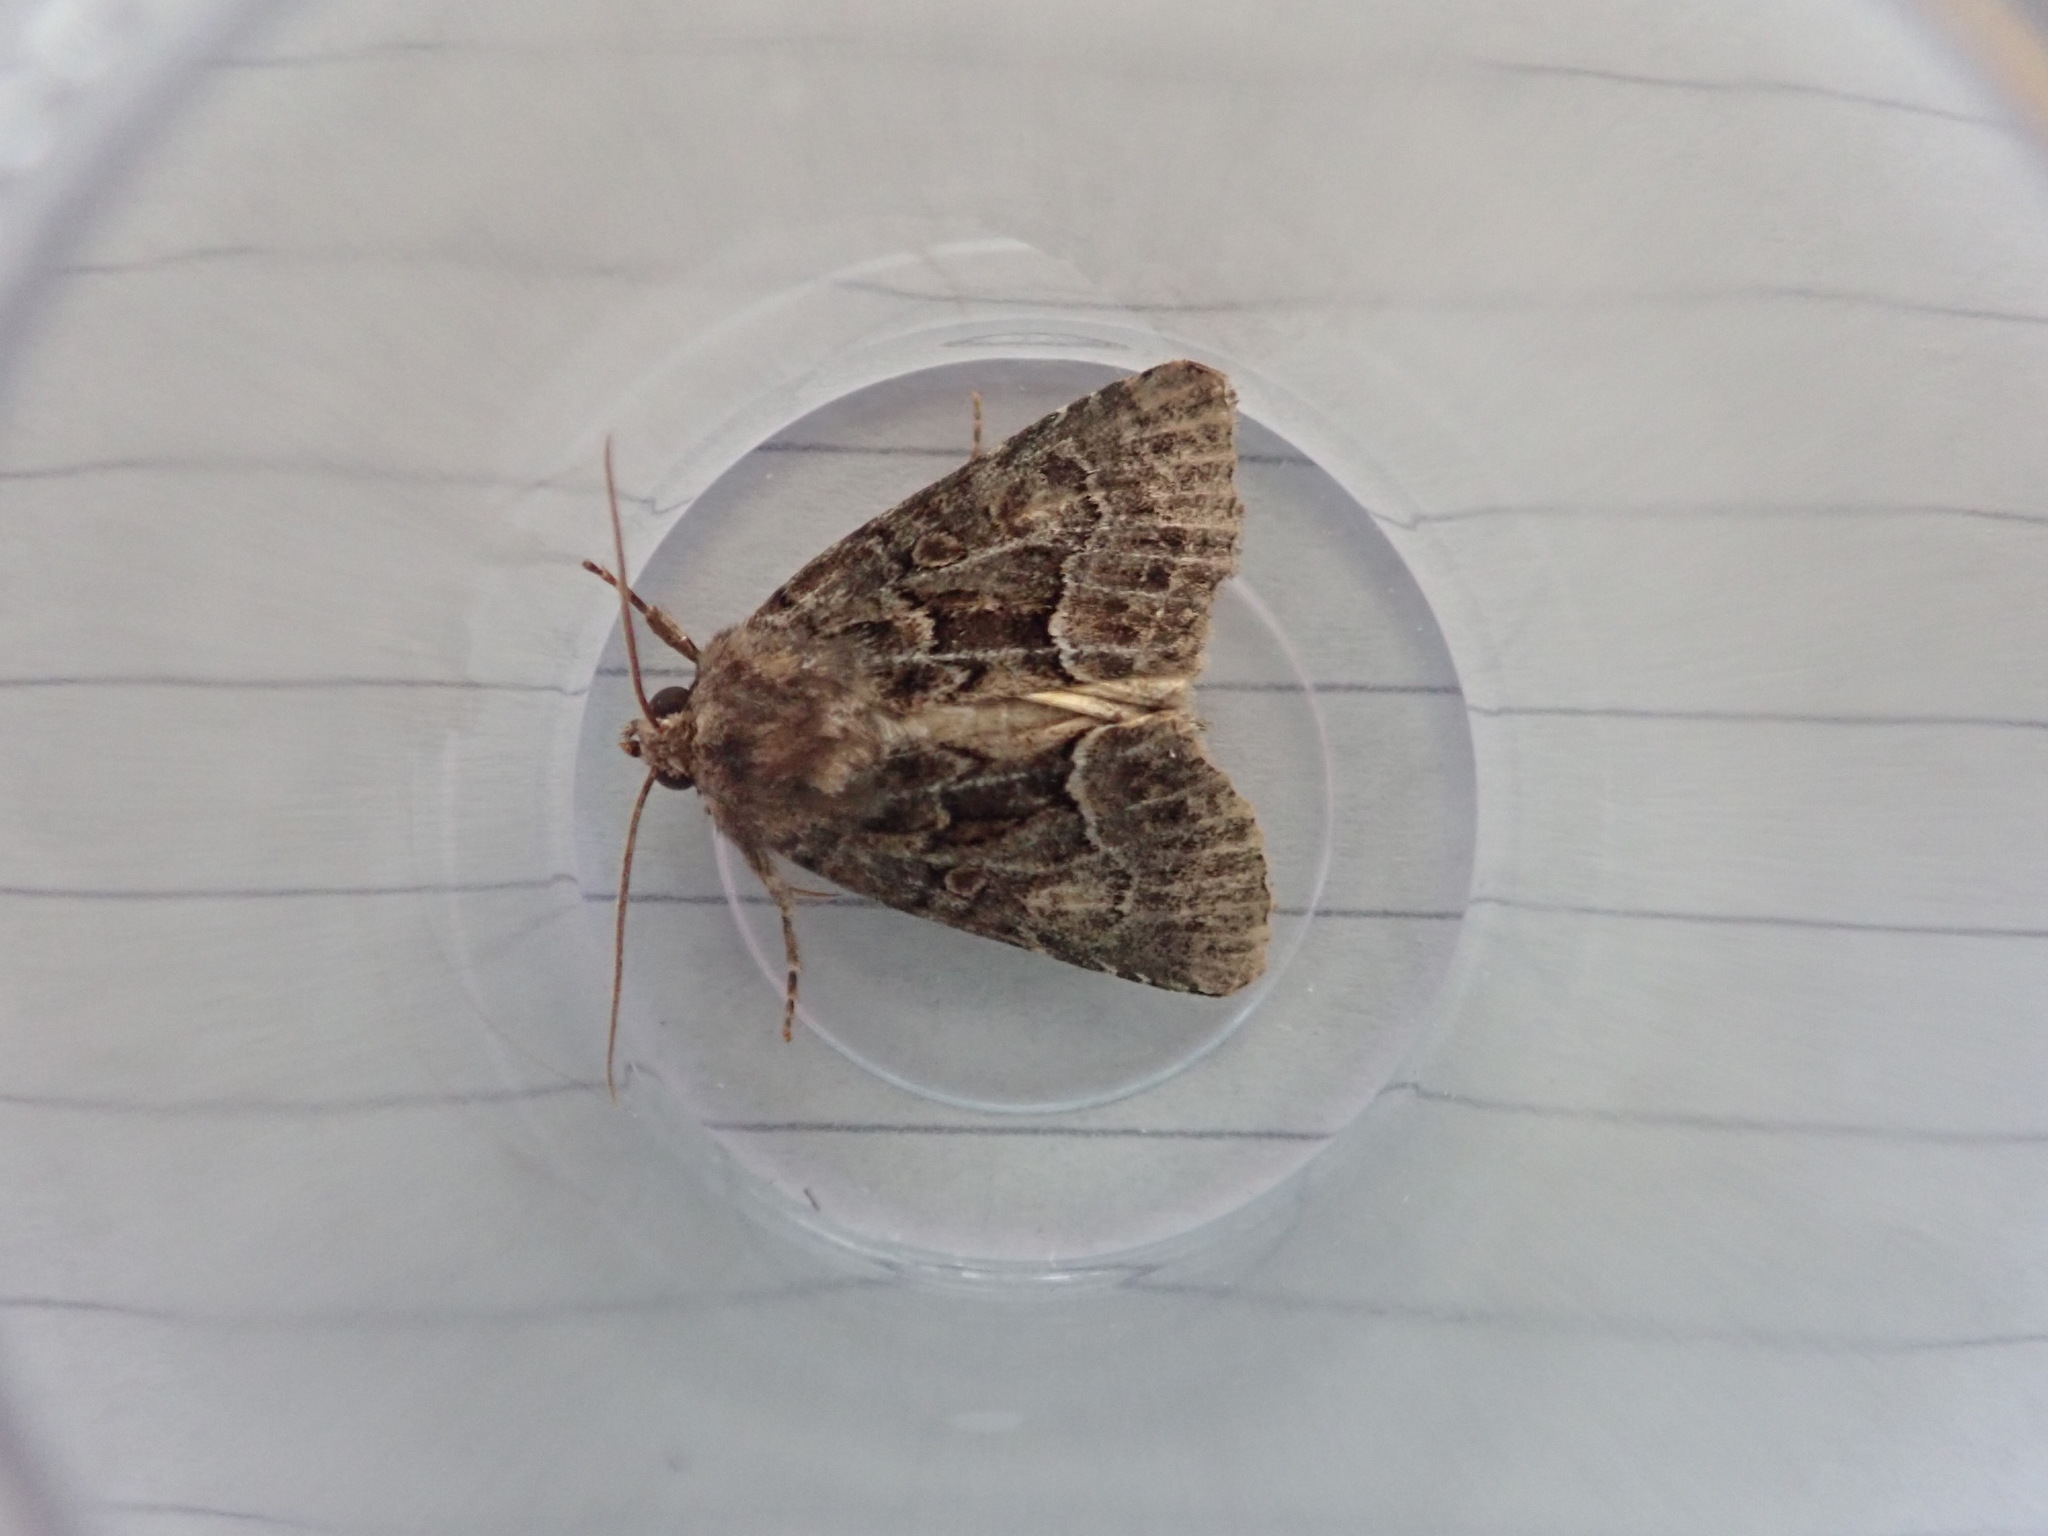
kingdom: Animalia
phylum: Arthropoda
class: Insecta
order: Lepidoptera
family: Noctuidae
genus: Thalpophila
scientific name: Thalpophila matura
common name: Straw underwing
